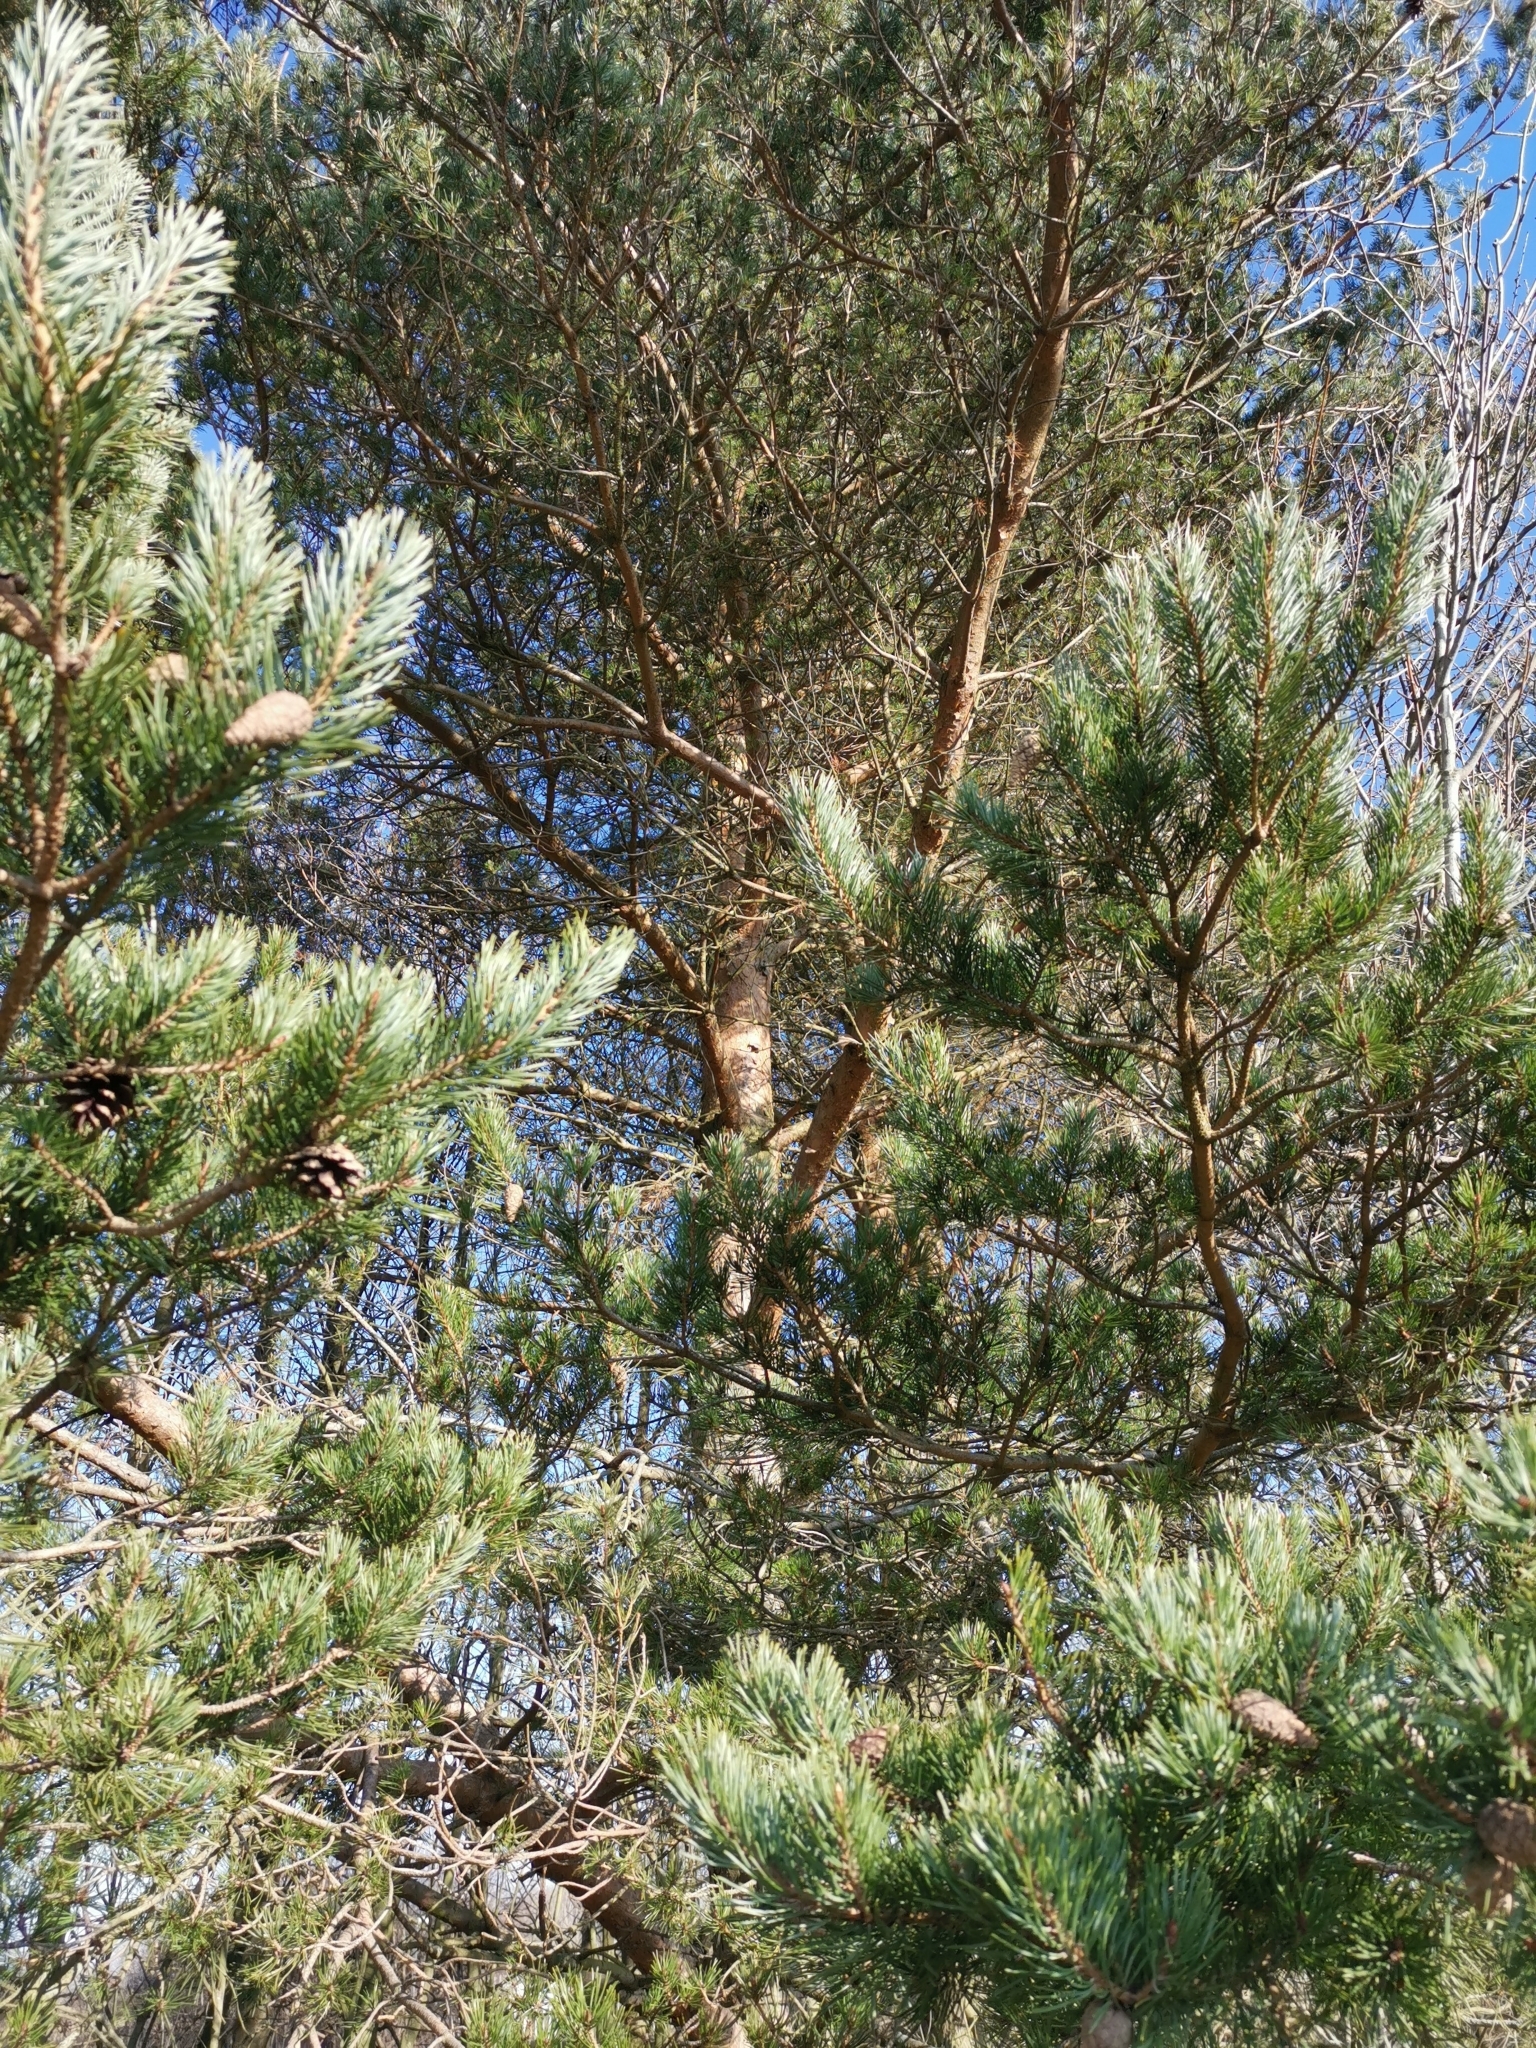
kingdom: Plantae
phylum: Tracheophyta
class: Pinopsida
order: Pinales
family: Pinaceae
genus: Pinus
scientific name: Pinus sylvestris
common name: Scots pine
